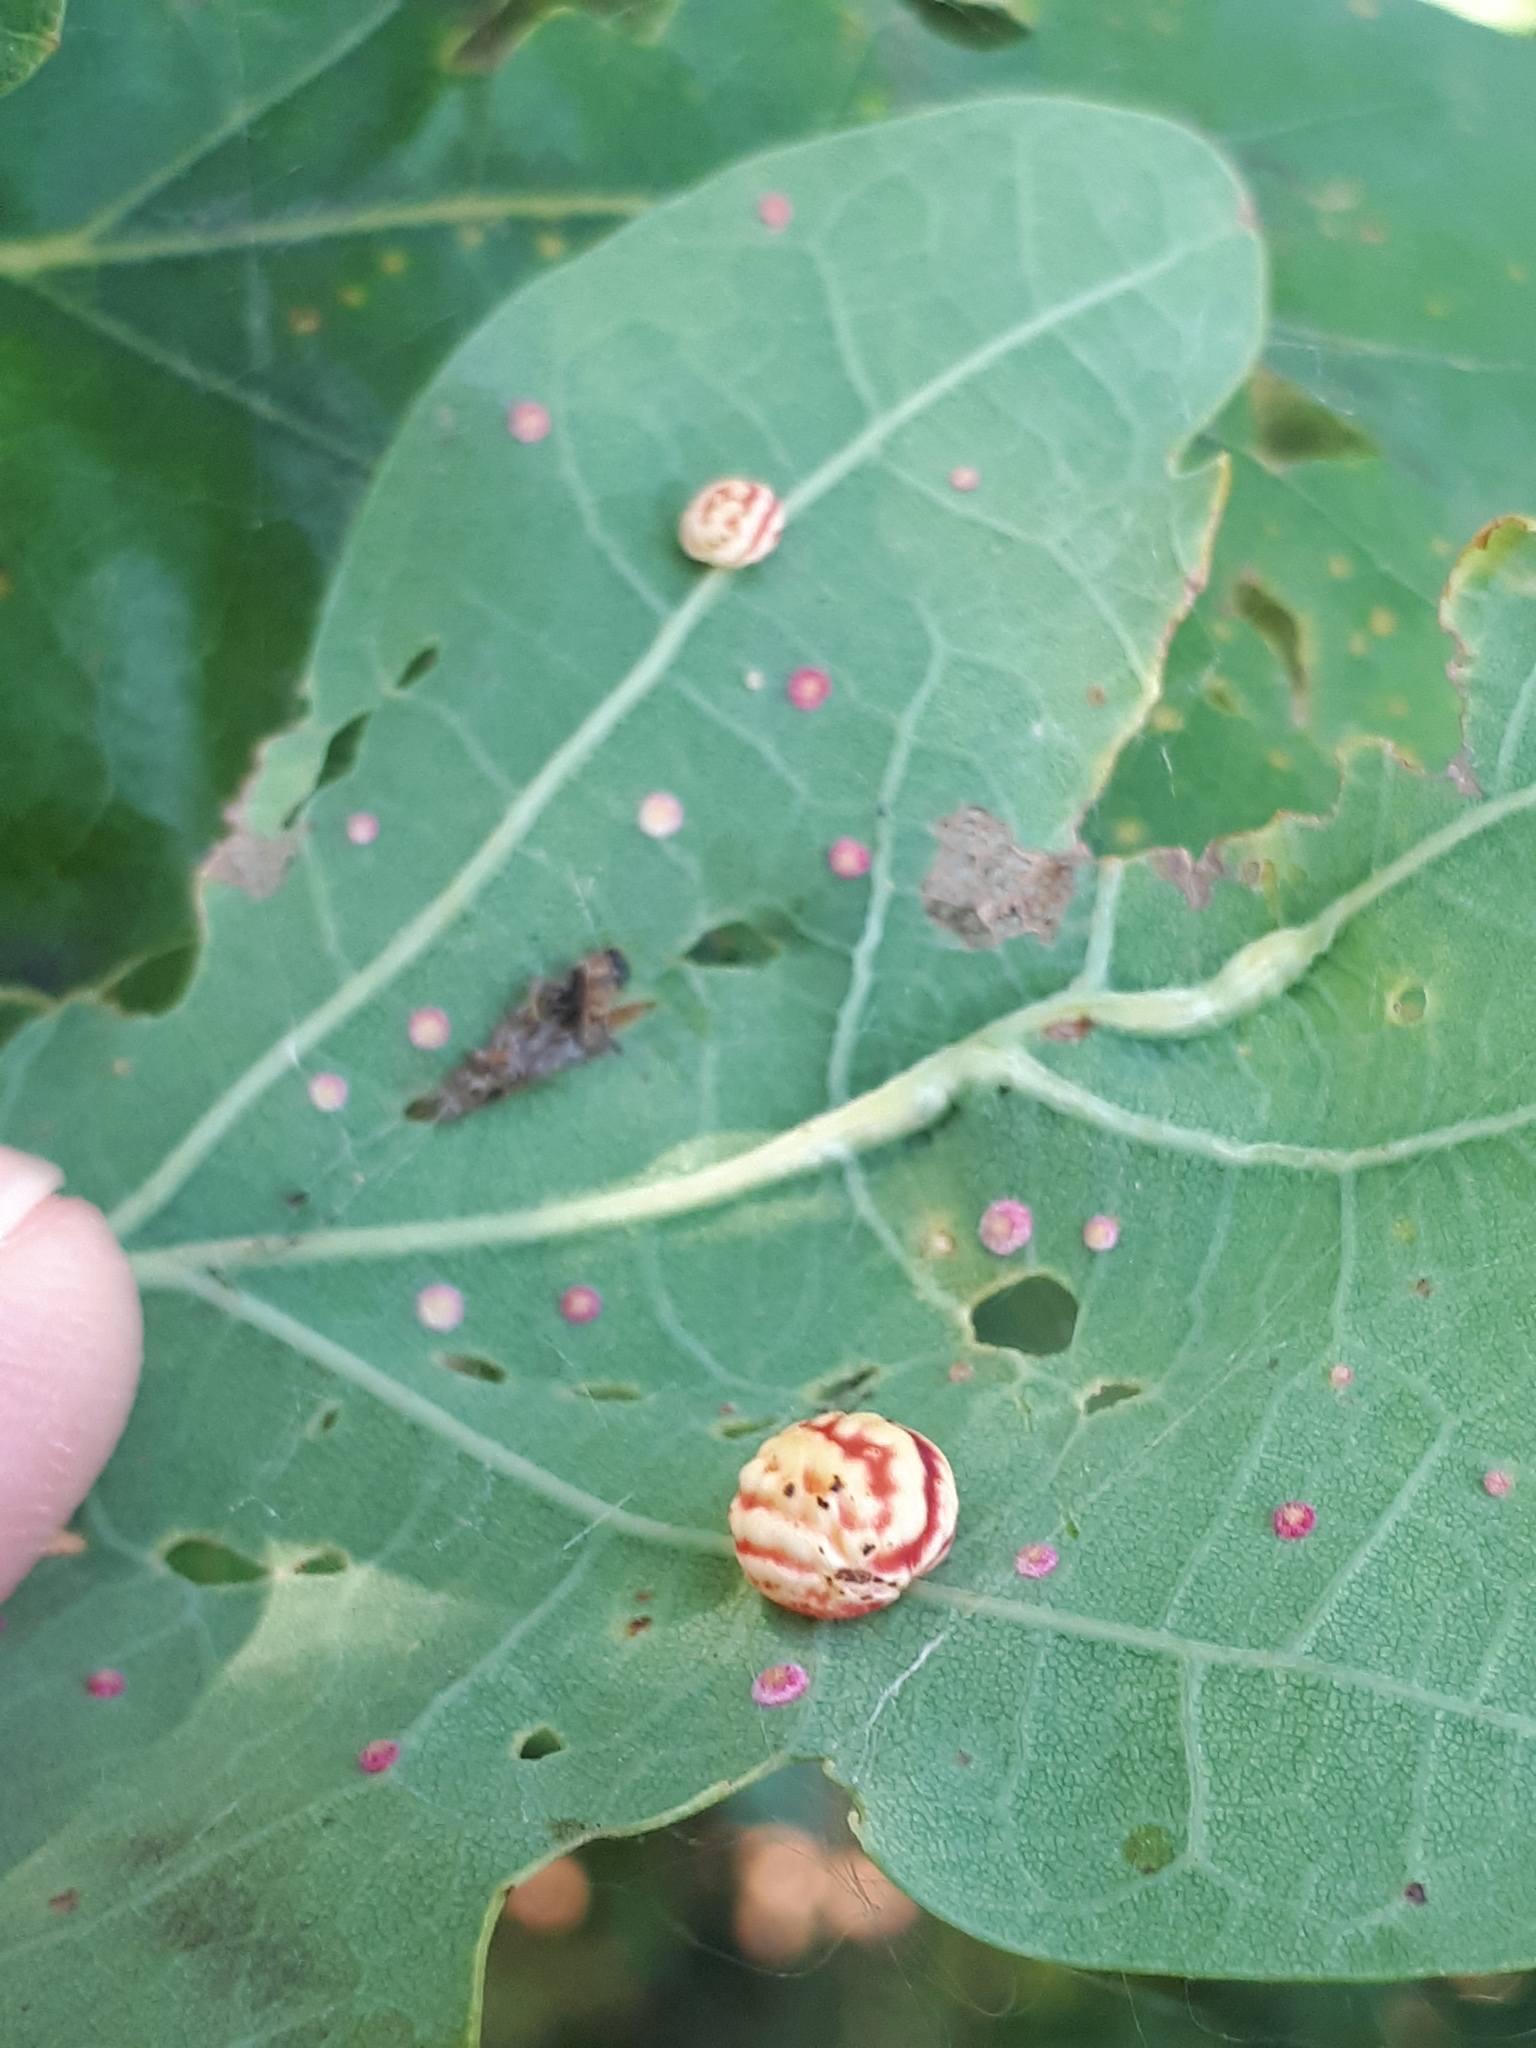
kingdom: Animalia
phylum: Arthropoda
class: Insecta
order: Hymenoptera
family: Cynipidae
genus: Cynips
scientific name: Cynips longiventris
